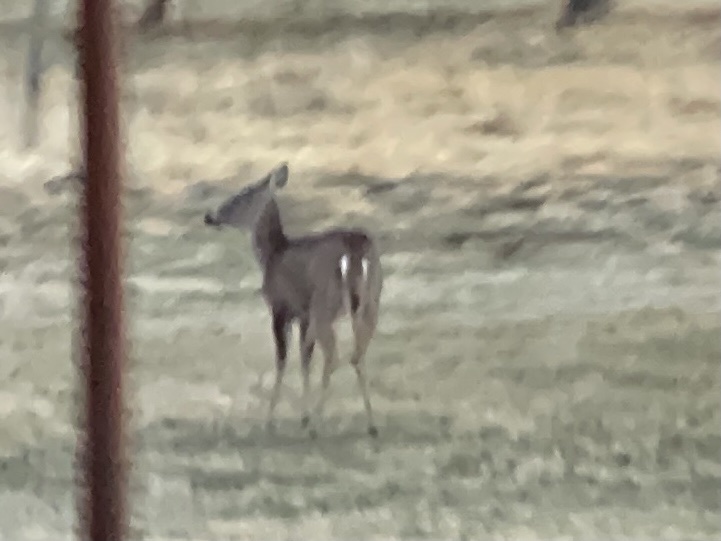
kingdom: Animalia
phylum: Chordata
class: Mammalia
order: Artiodactyla
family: Cervidae
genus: Odocoileus
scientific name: Odocoileus virginianus
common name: White-tailed deer
